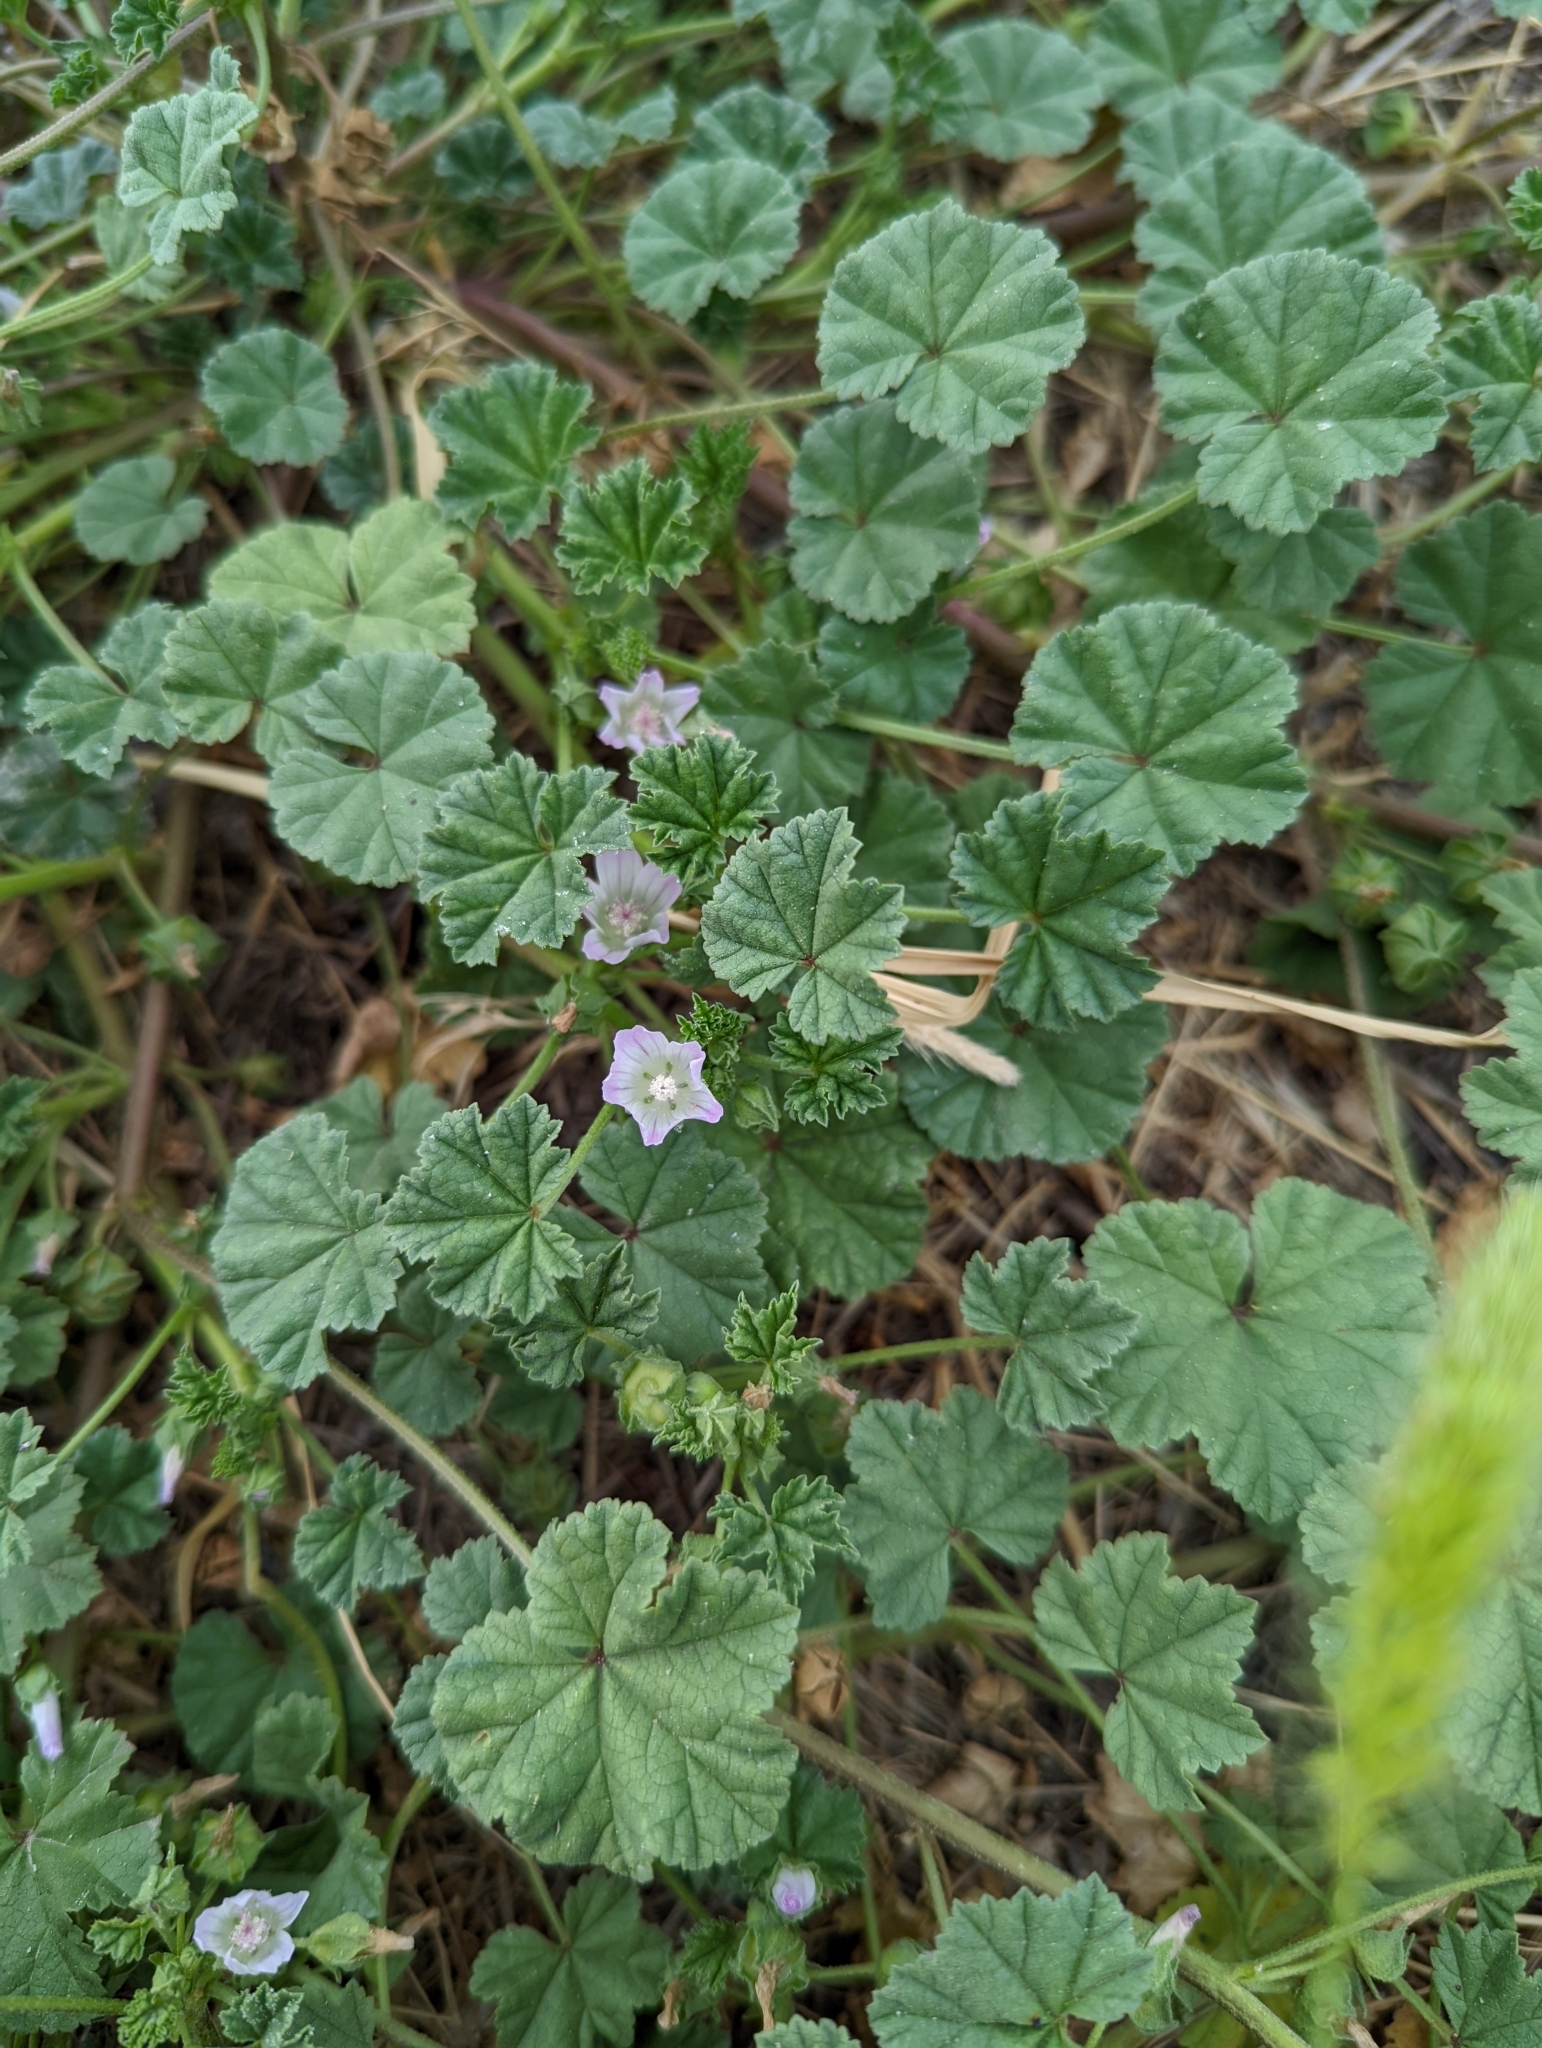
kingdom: Plantae
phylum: Tracheophyta
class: Magnoliopsida
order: Malvales
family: Malvaceae
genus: Malva
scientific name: Malva neglecta
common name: Common mallow
